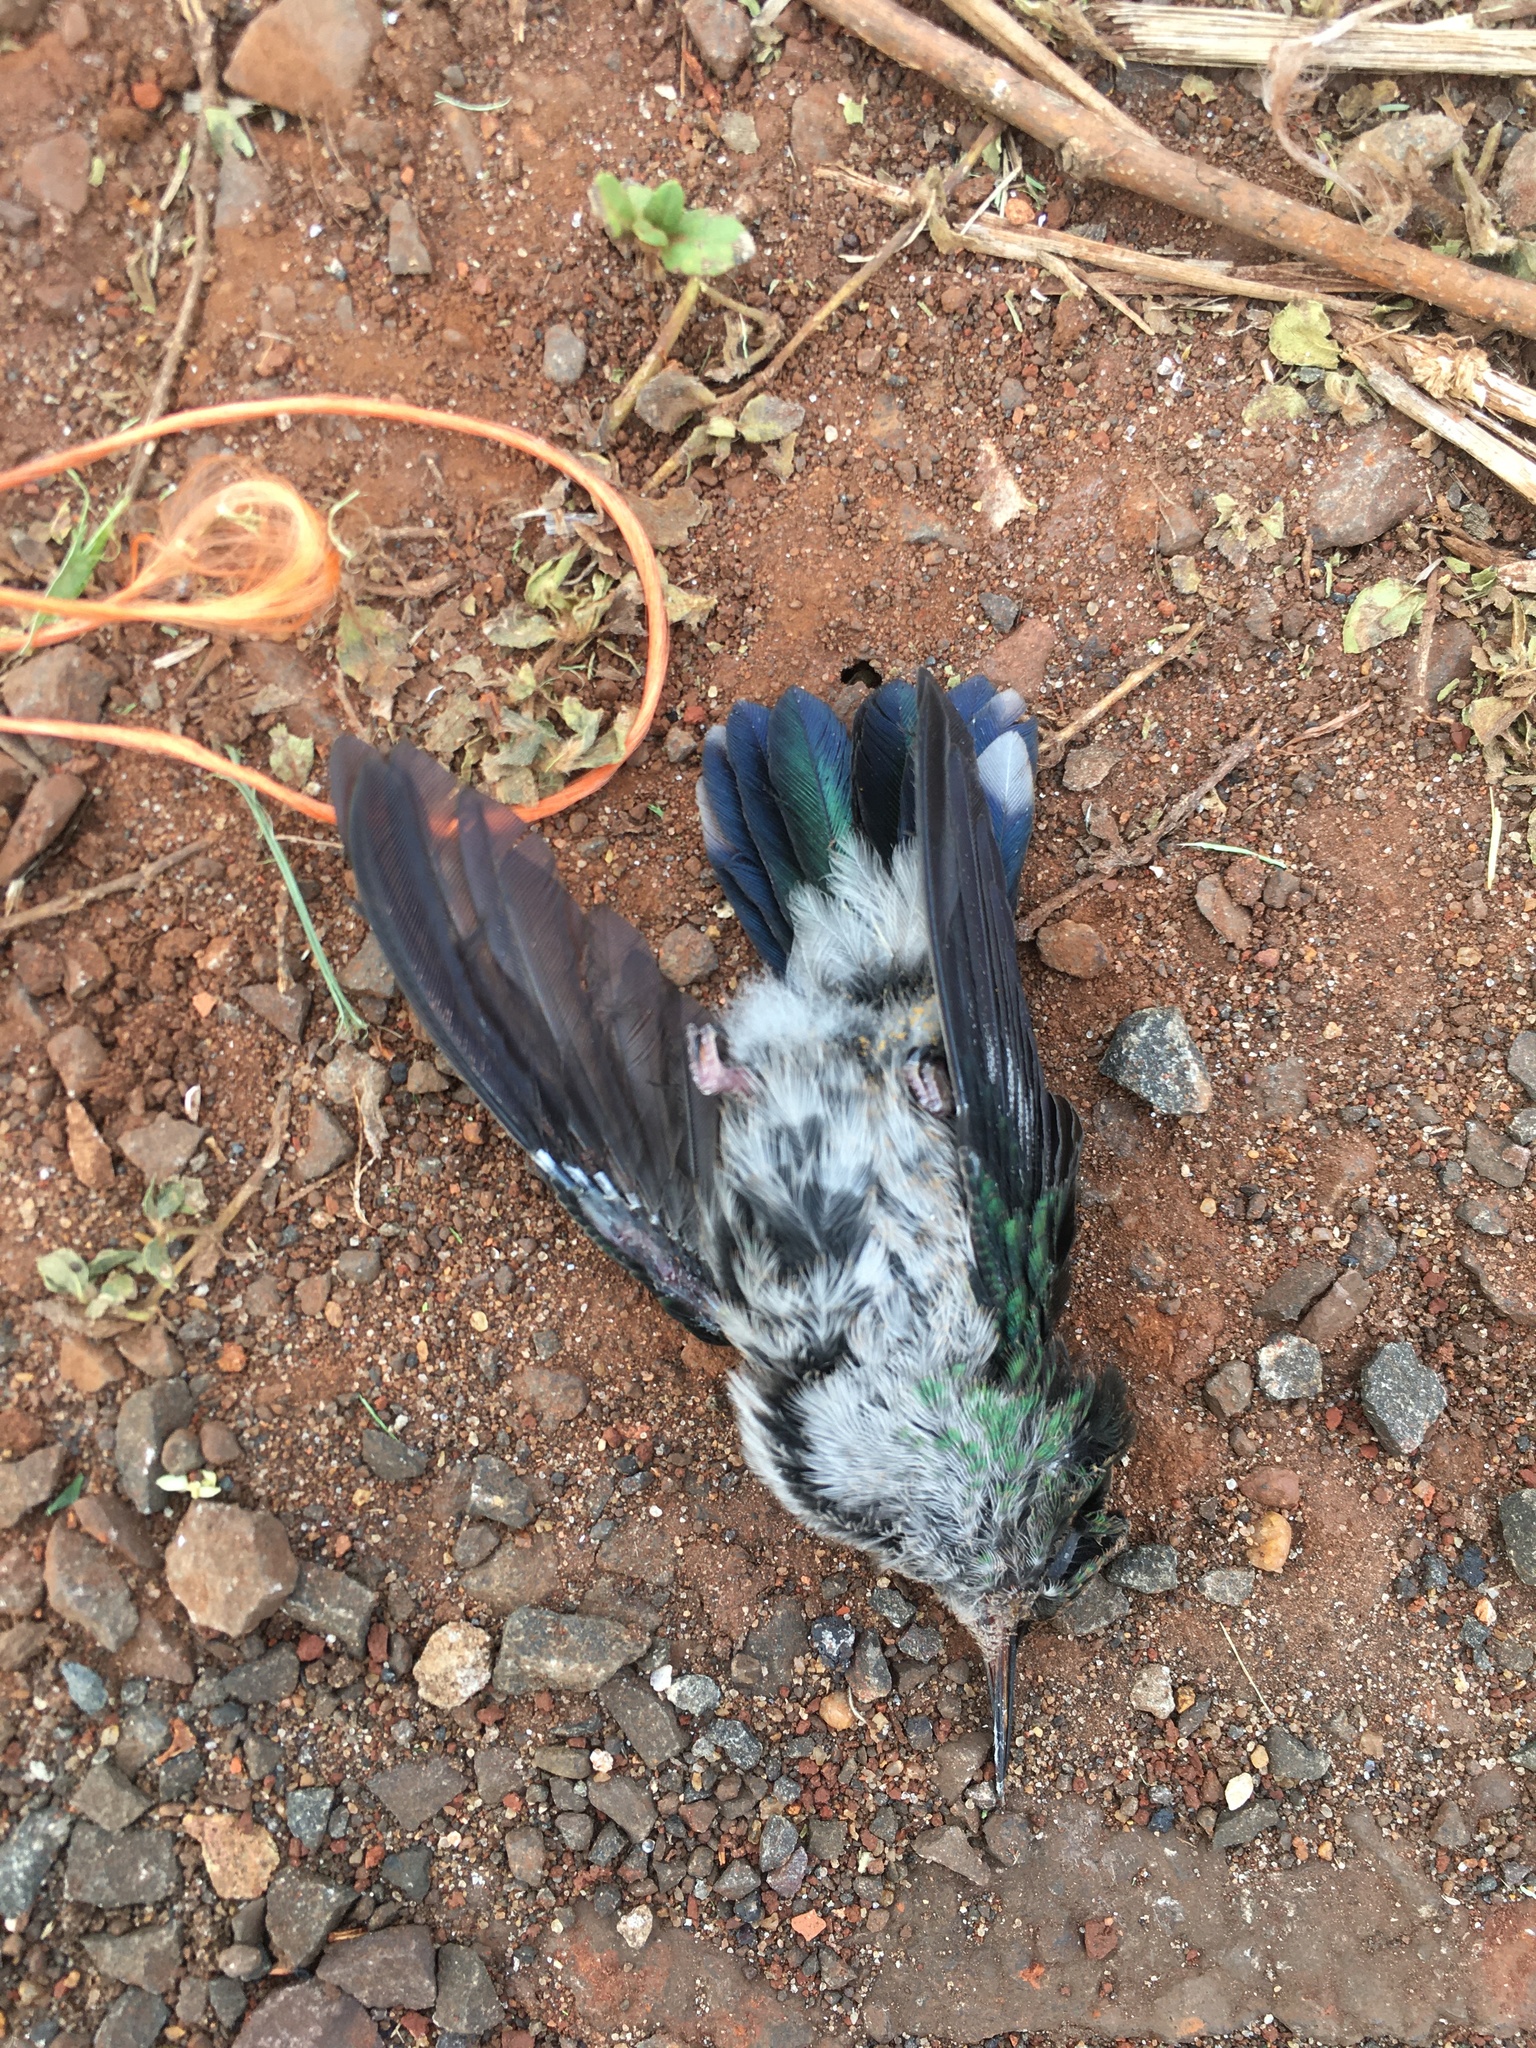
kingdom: Animalia
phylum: Chordata
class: Aves
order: Apodiformes
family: Trochilidae
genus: Thalurania
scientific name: Thalurania glaucopis
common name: Violet-capped woodnymph
